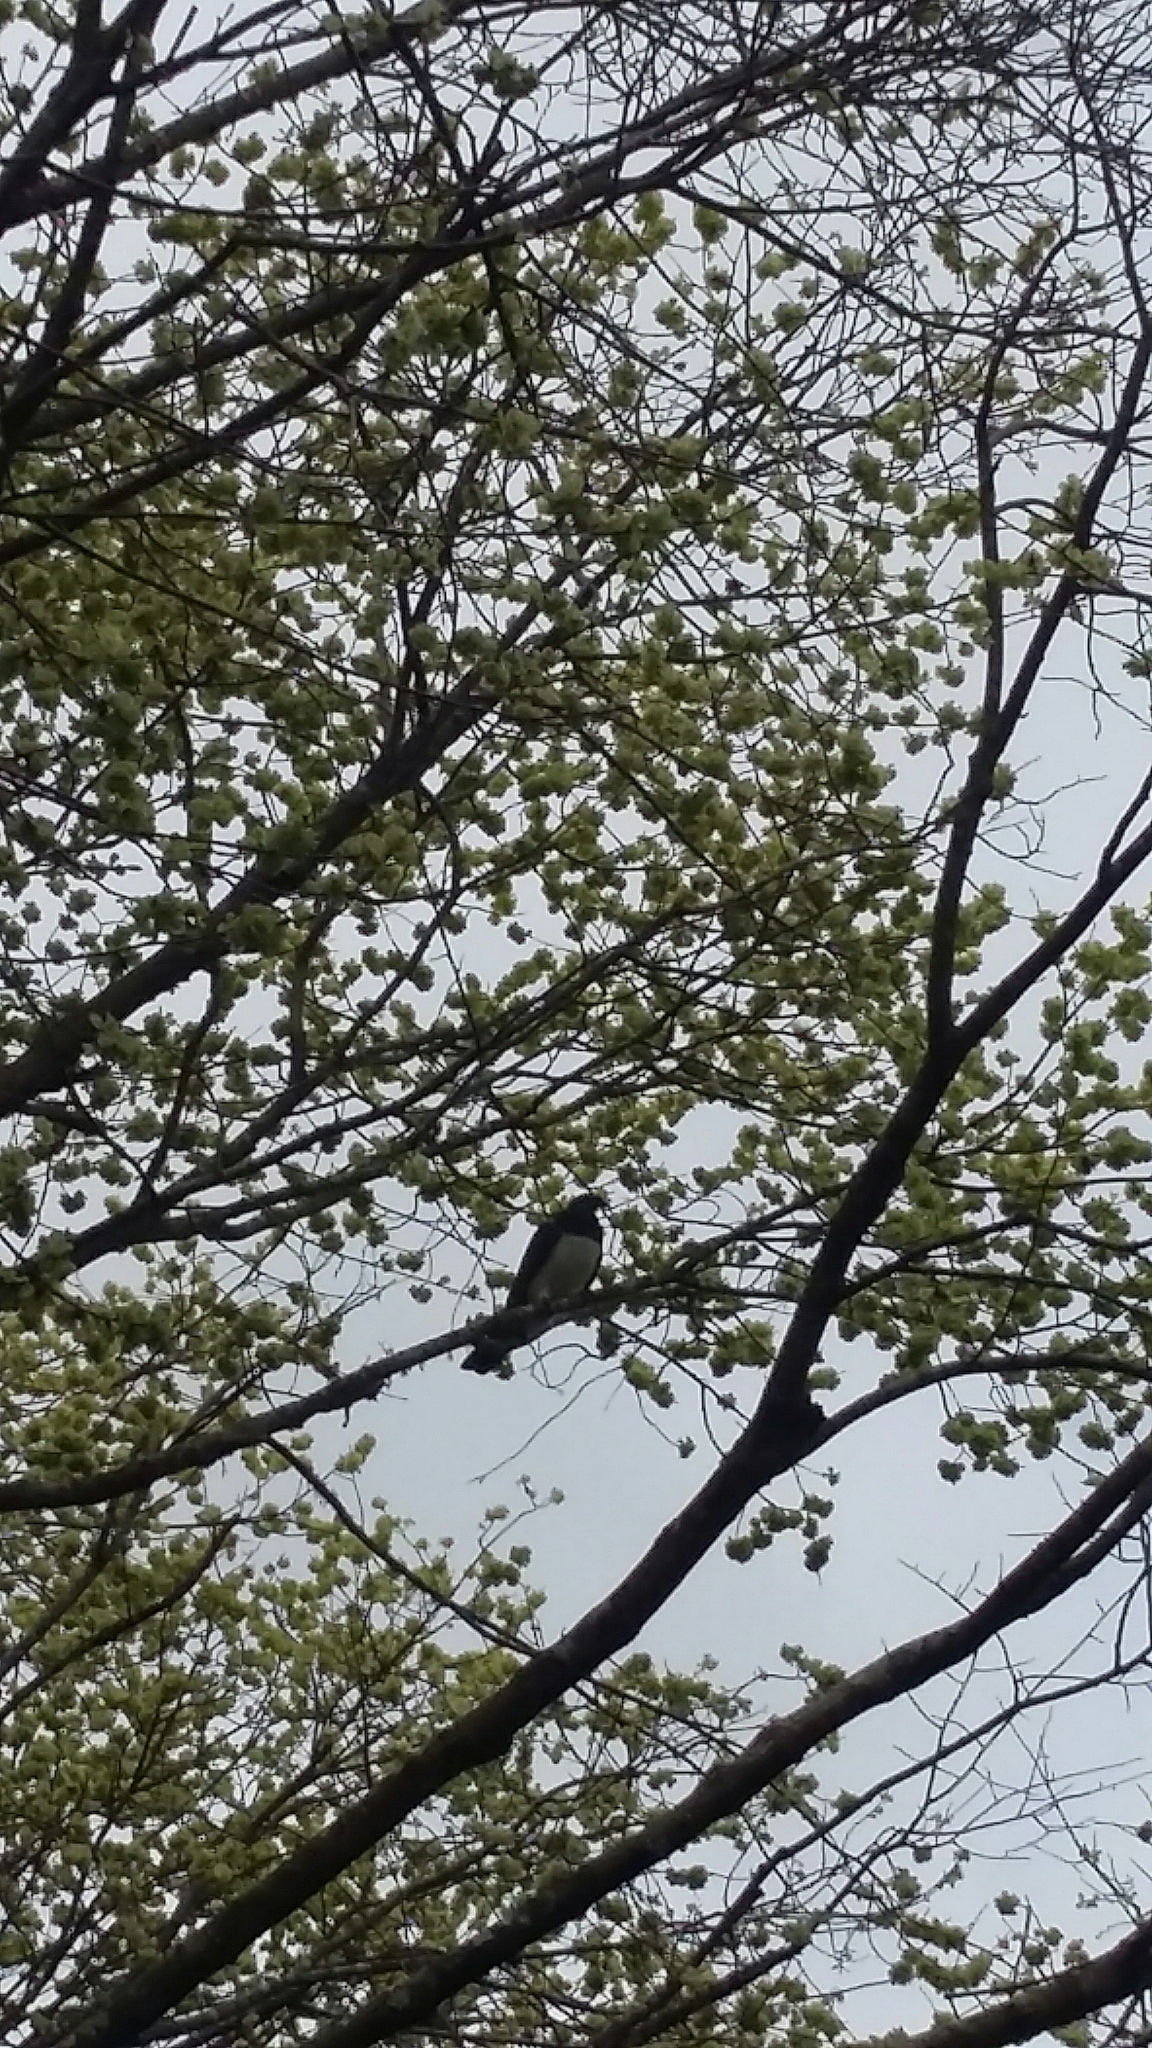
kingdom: Animalia
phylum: Chordata
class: Aves
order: Columbiformes
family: Columbidae
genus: Hemiphaga
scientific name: Hemiphaga novaeseelandiae
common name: New zealand pigeon
